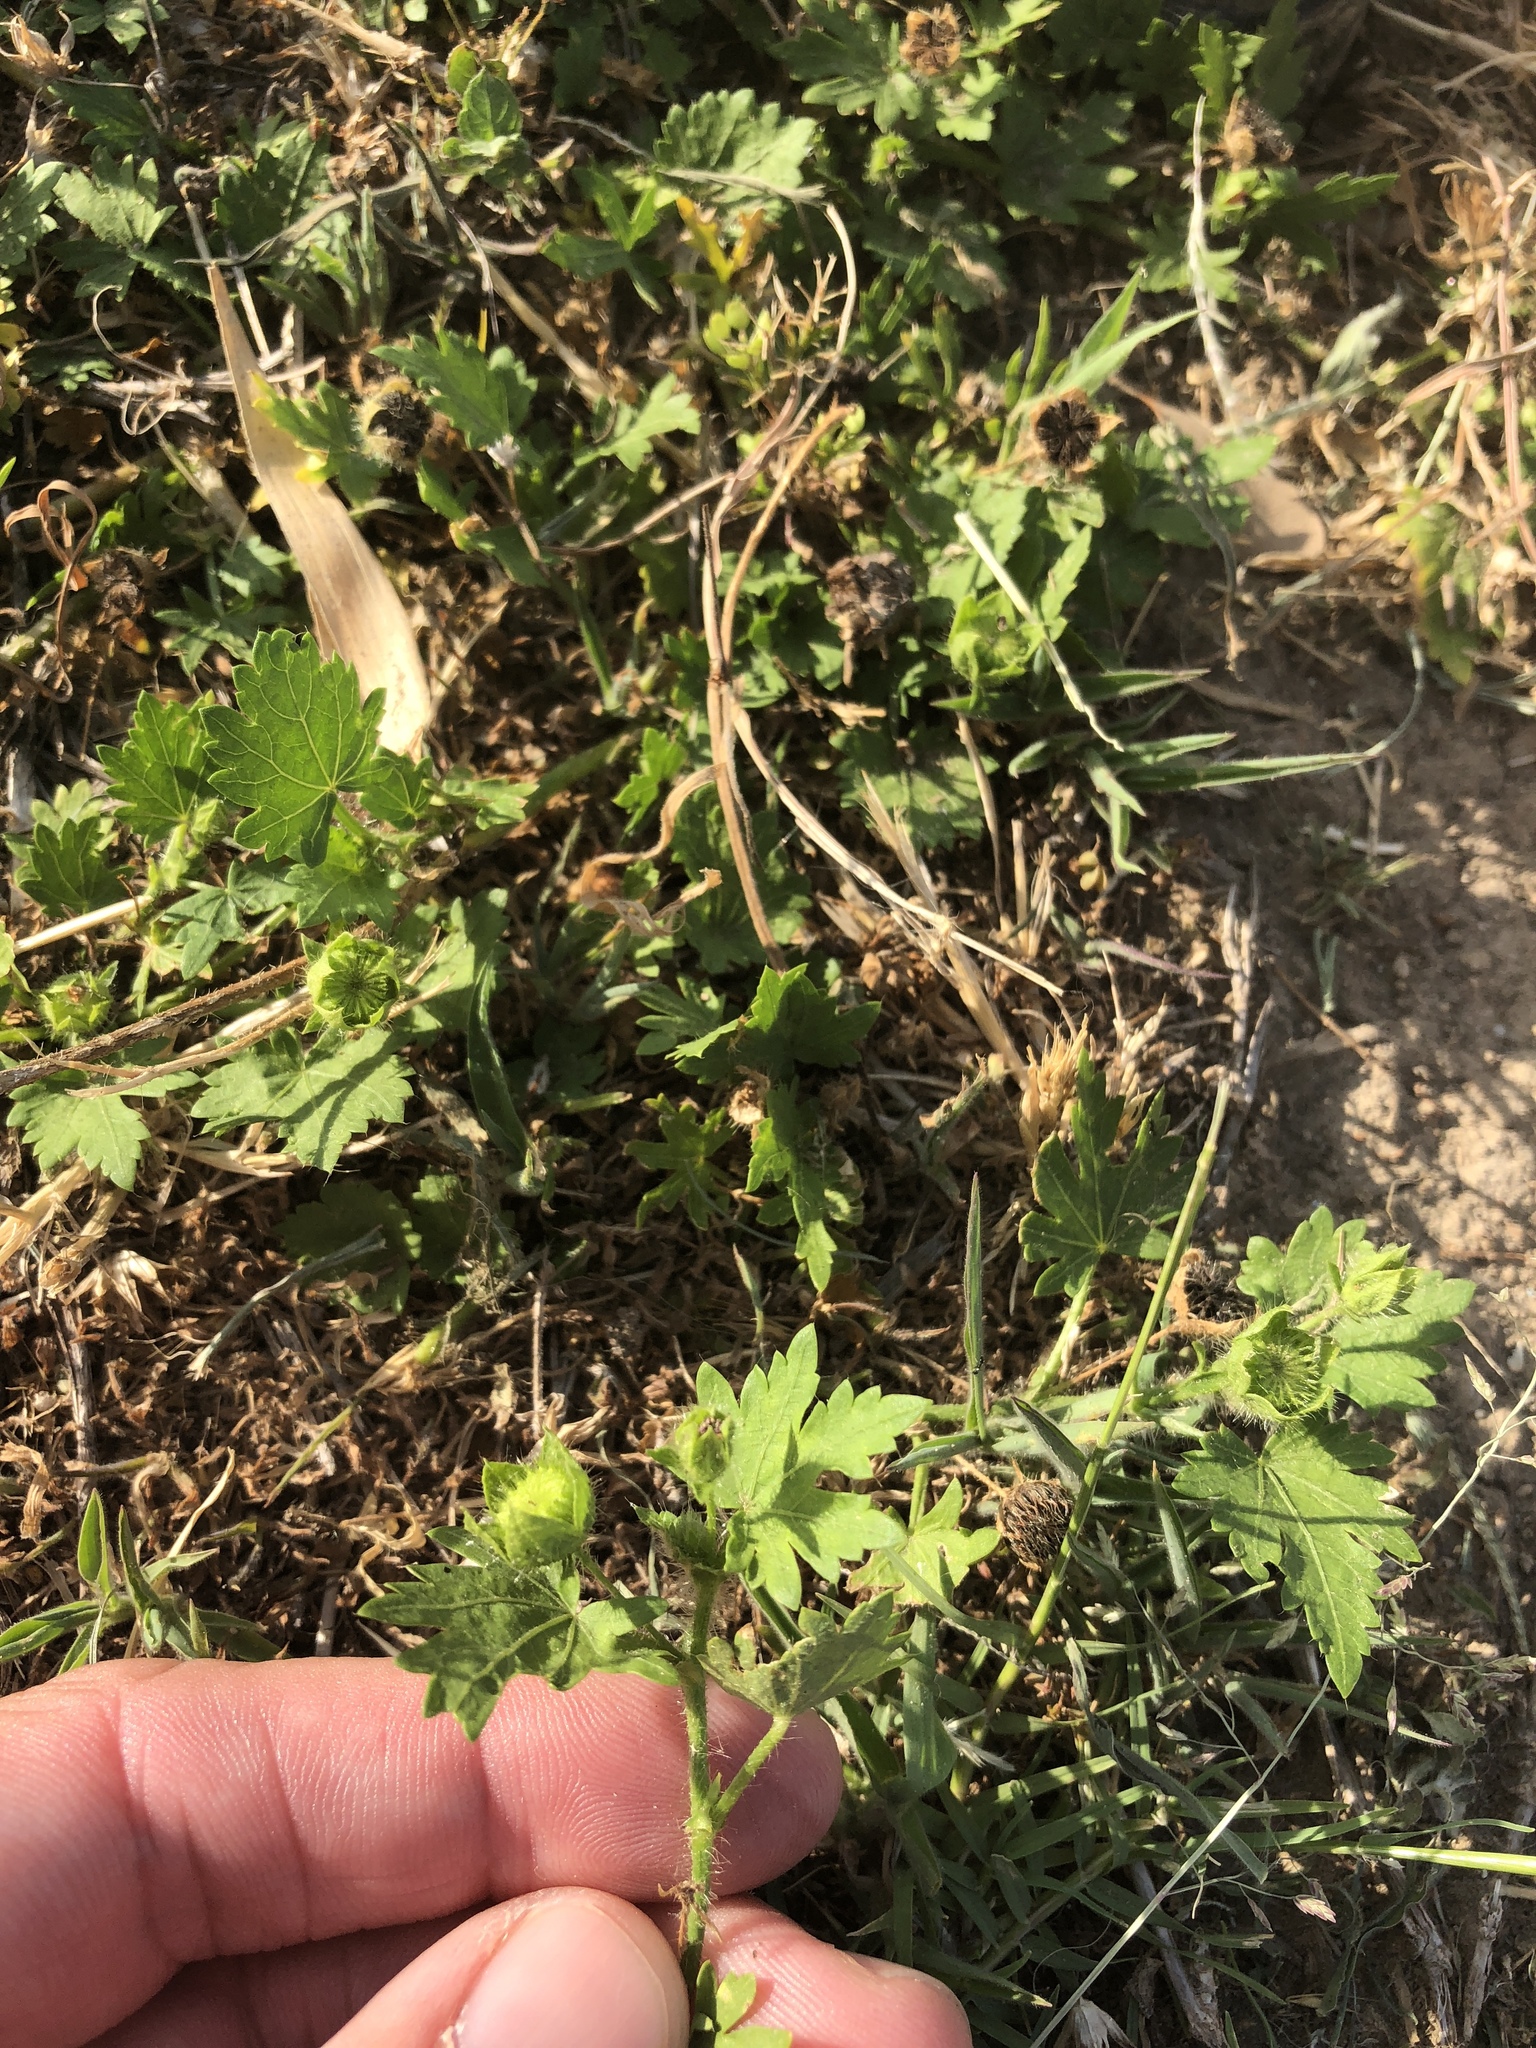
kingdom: Plantae
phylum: Tracheophyta
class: Magnoliopsida
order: Malvales
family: Malvaceae
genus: Modiola
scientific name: Modiola caroliniana
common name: Carolina bristlemallow
